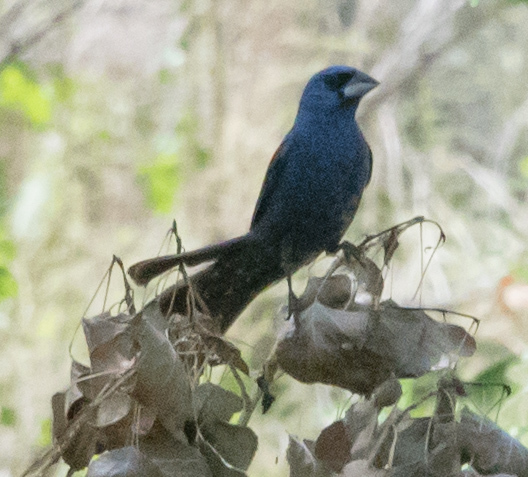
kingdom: Animalia
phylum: Chordata
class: Aves
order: Passeriformes
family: Cardinalidae
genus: Passerina
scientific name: Passerina caerulea
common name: Blue grosbeak
